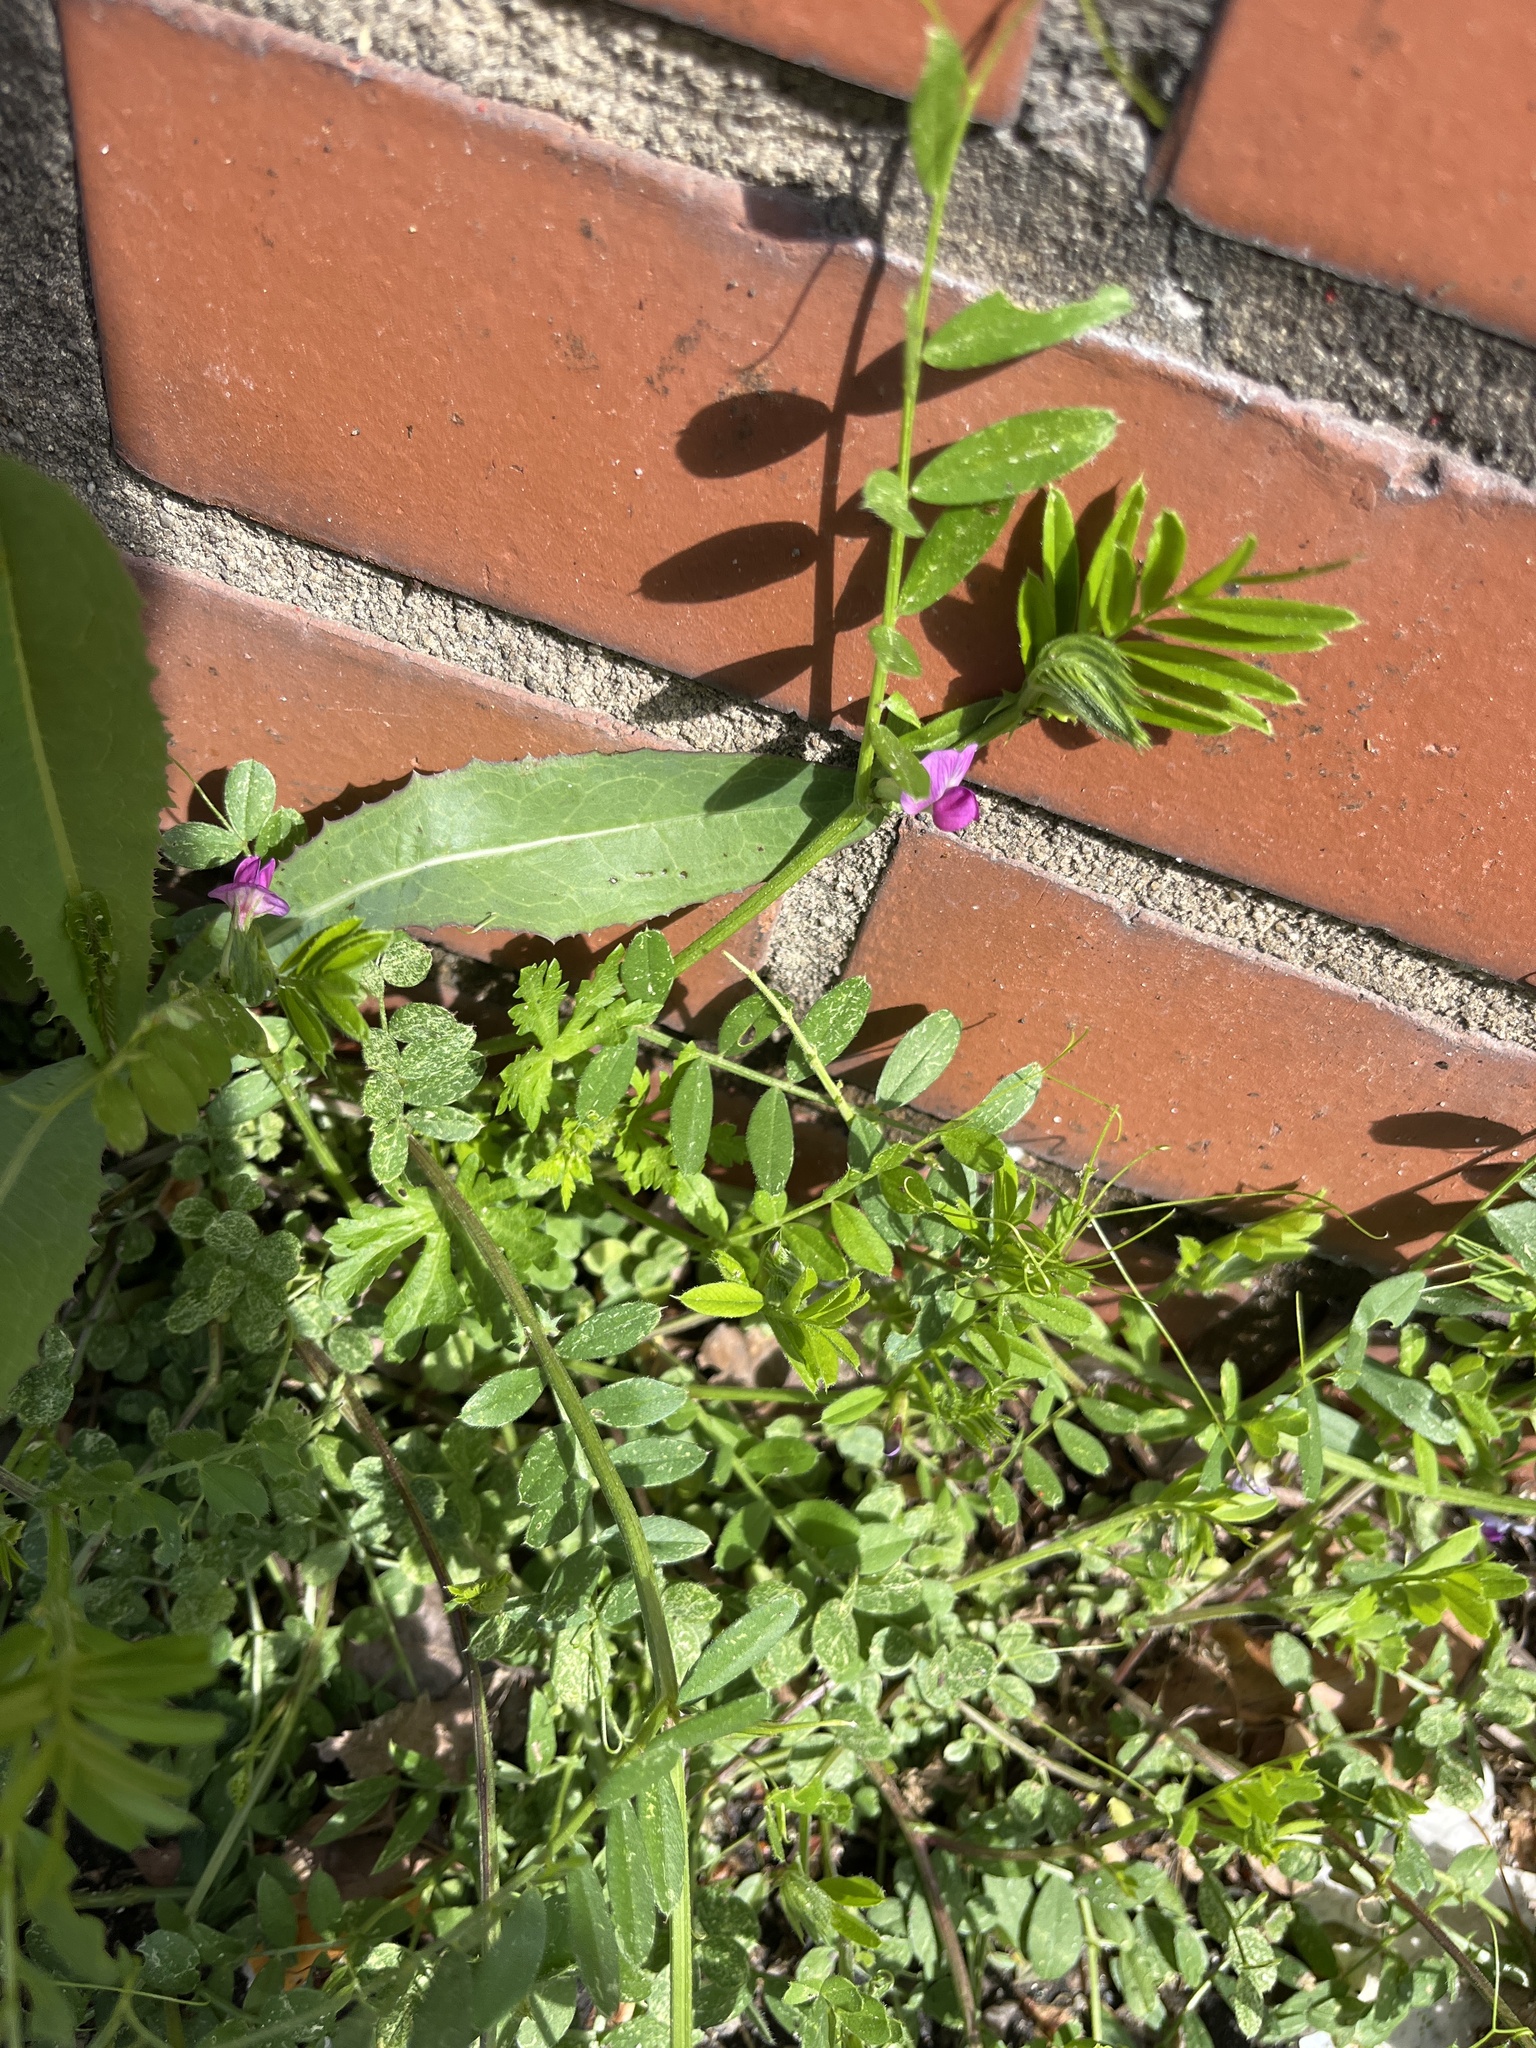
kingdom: Plantae
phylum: Tracheophyta
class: Magnoliopsida
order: Fabales
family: Fabaceae
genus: Vicia
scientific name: Vicia sativa
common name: Garden vetch
